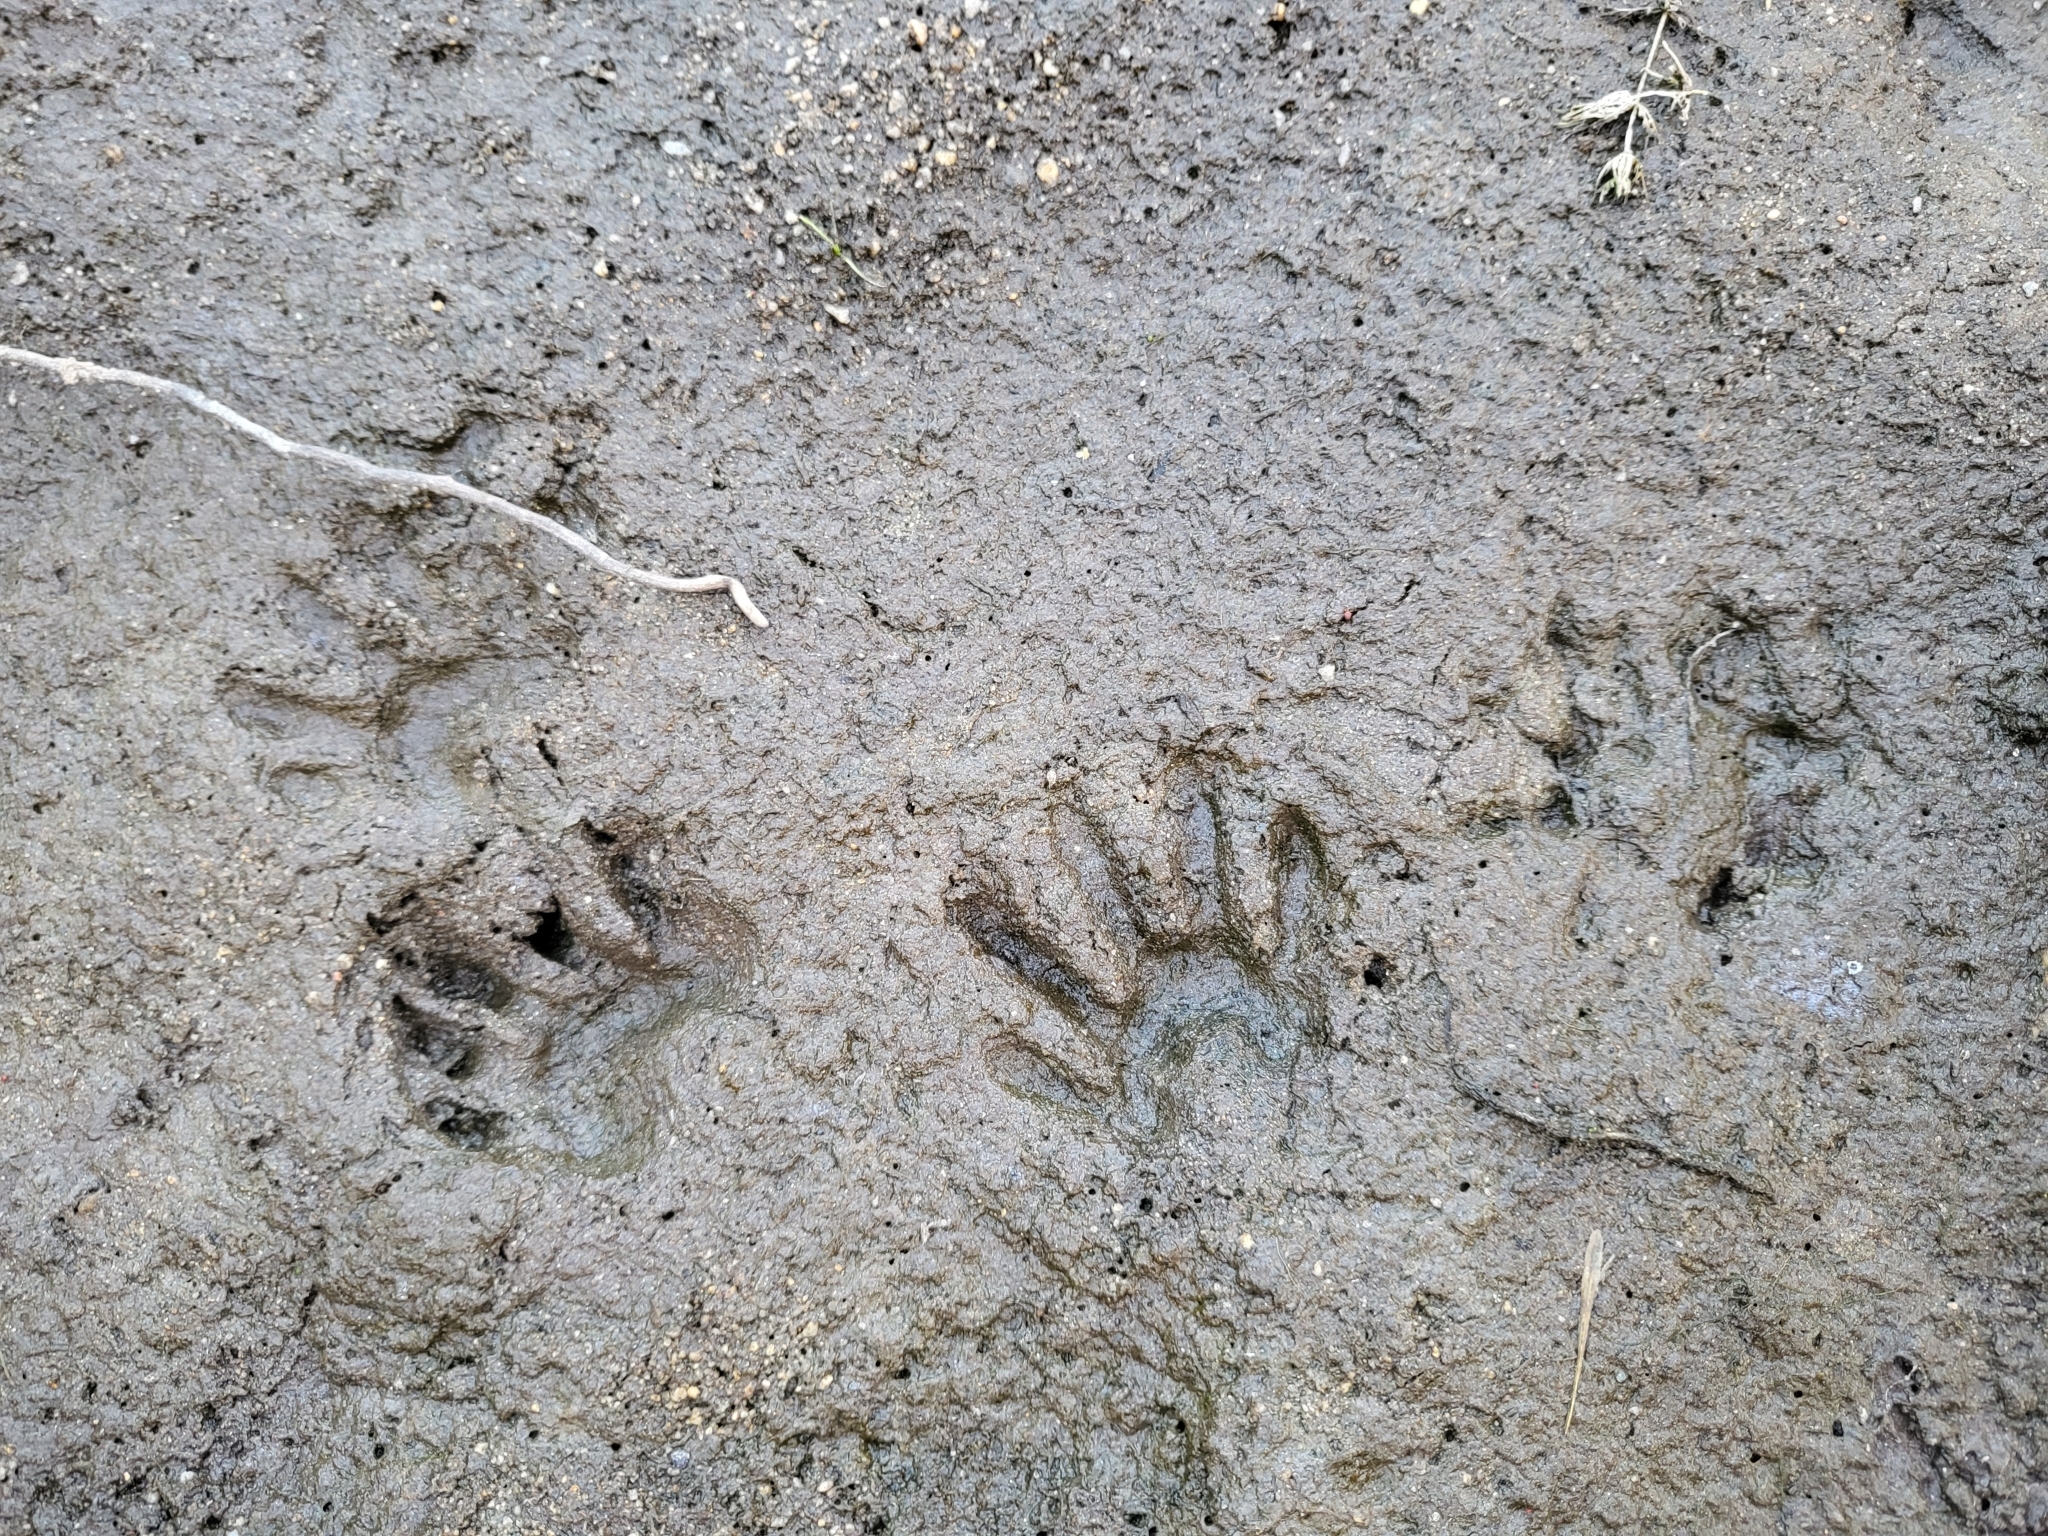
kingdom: Animalia
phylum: Chordata
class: Mammalia
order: Carnivora
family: Procyonidae
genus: Procyon
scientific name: Procyon lotor
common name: Raccoon
